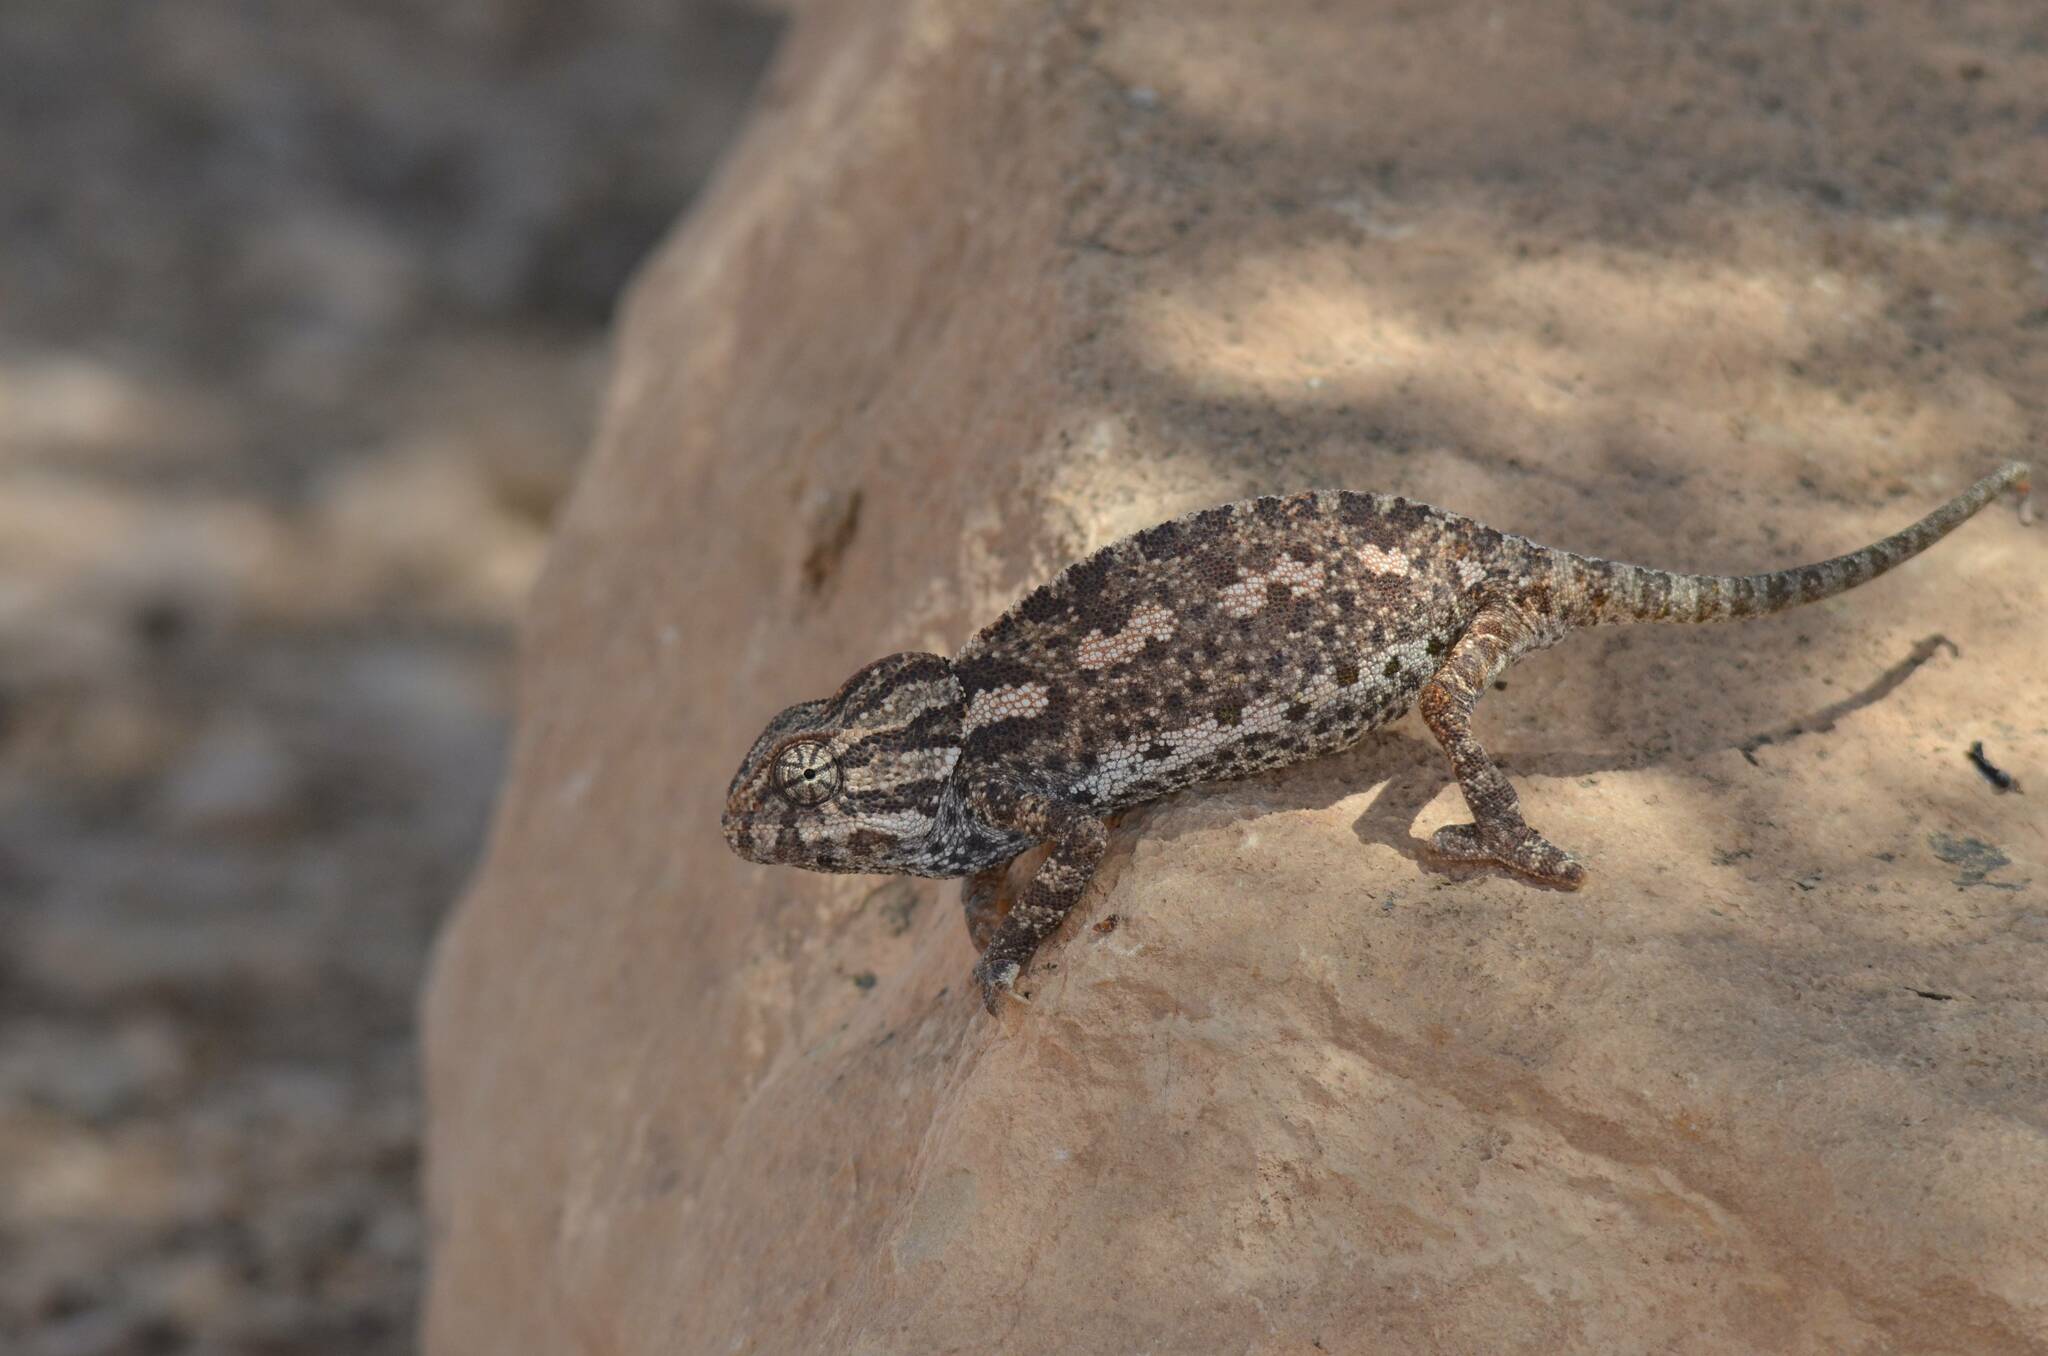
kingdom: Animalia
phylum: Chordata
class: Squamata
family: Chamaeleonidae
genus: Chamaeleo
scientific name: Chamaeleo chamaeleon
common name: Mediterranean chameleon
